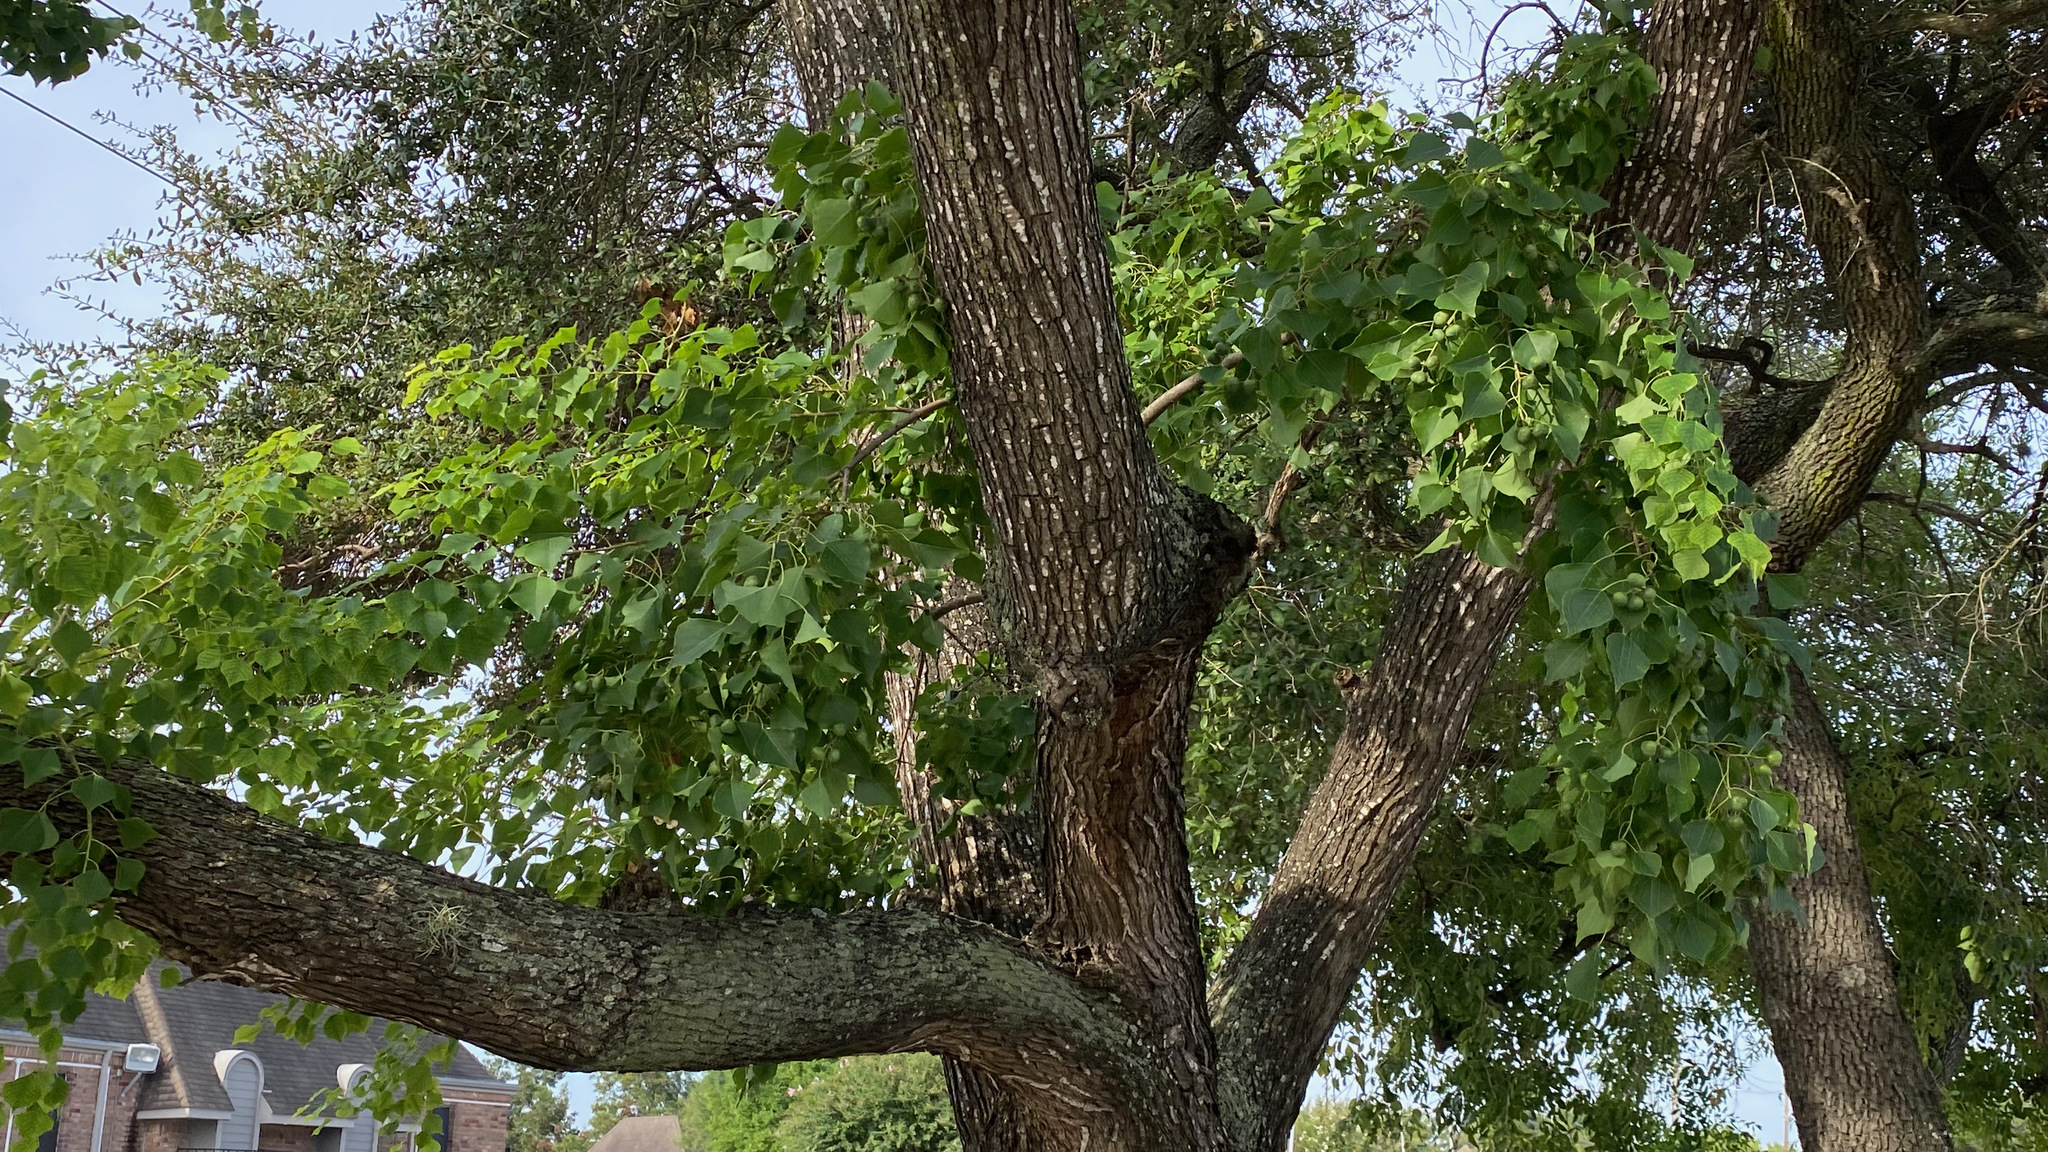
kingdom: Plantae
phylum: Tracheophyta
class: Magnoliopsida
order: Malpighiales
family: Euphorbiaceae
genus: Triadica
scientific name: Triadica sebifera
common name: Chinese tallow
